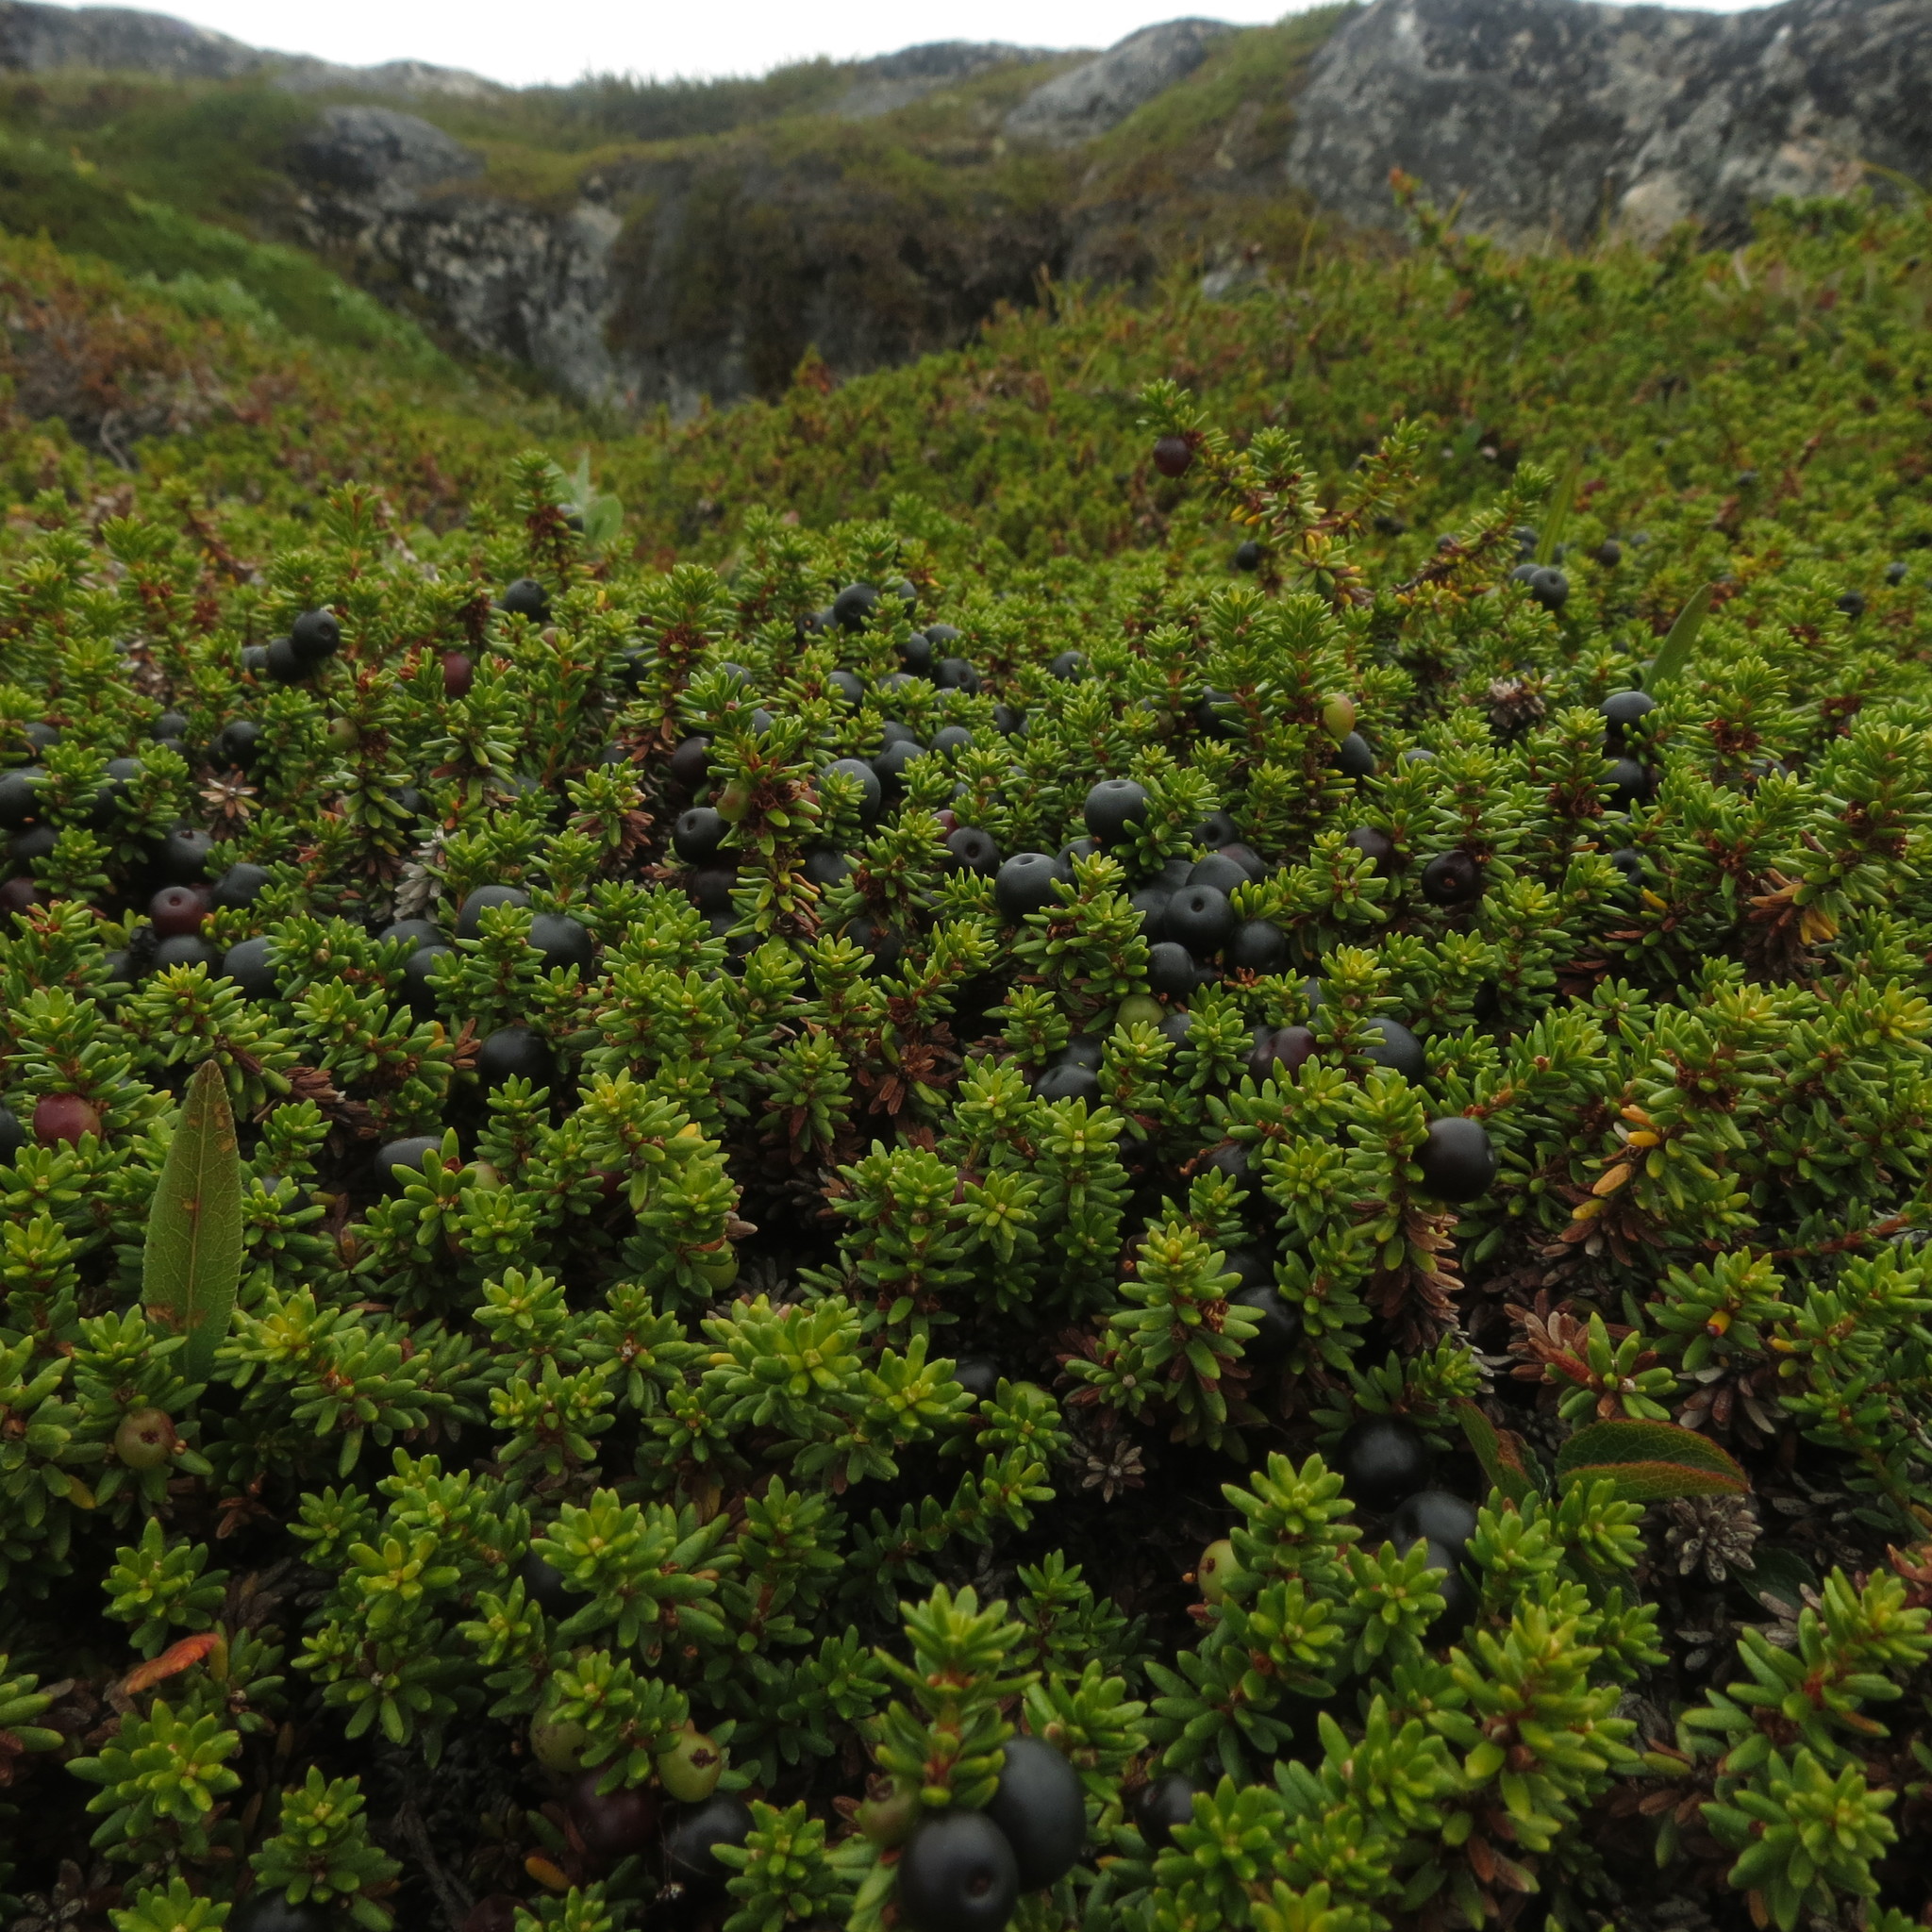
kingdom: Plantae
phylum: Tracheophyta
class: Magnoliopsida
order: Ericales
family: Ericaceae
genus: Empetrum
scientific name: Empetrum nigrum
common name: Black crowberry
